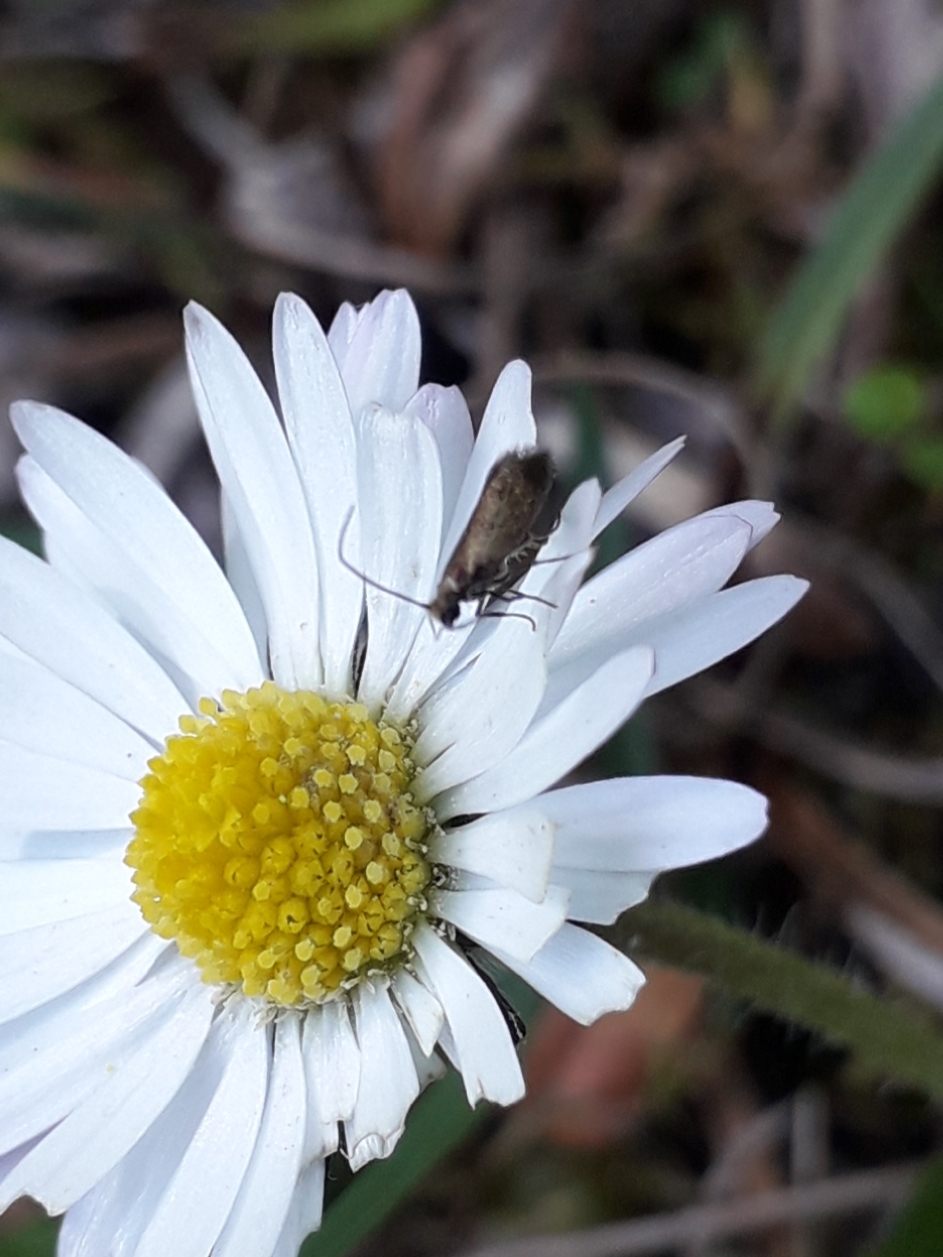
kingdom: Animalia
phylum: Arthropoda
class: Insecta
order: Lepidoptera
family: Micropterigidae
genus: Micropterix
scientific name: Micropterix calthella
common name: Plain gold
